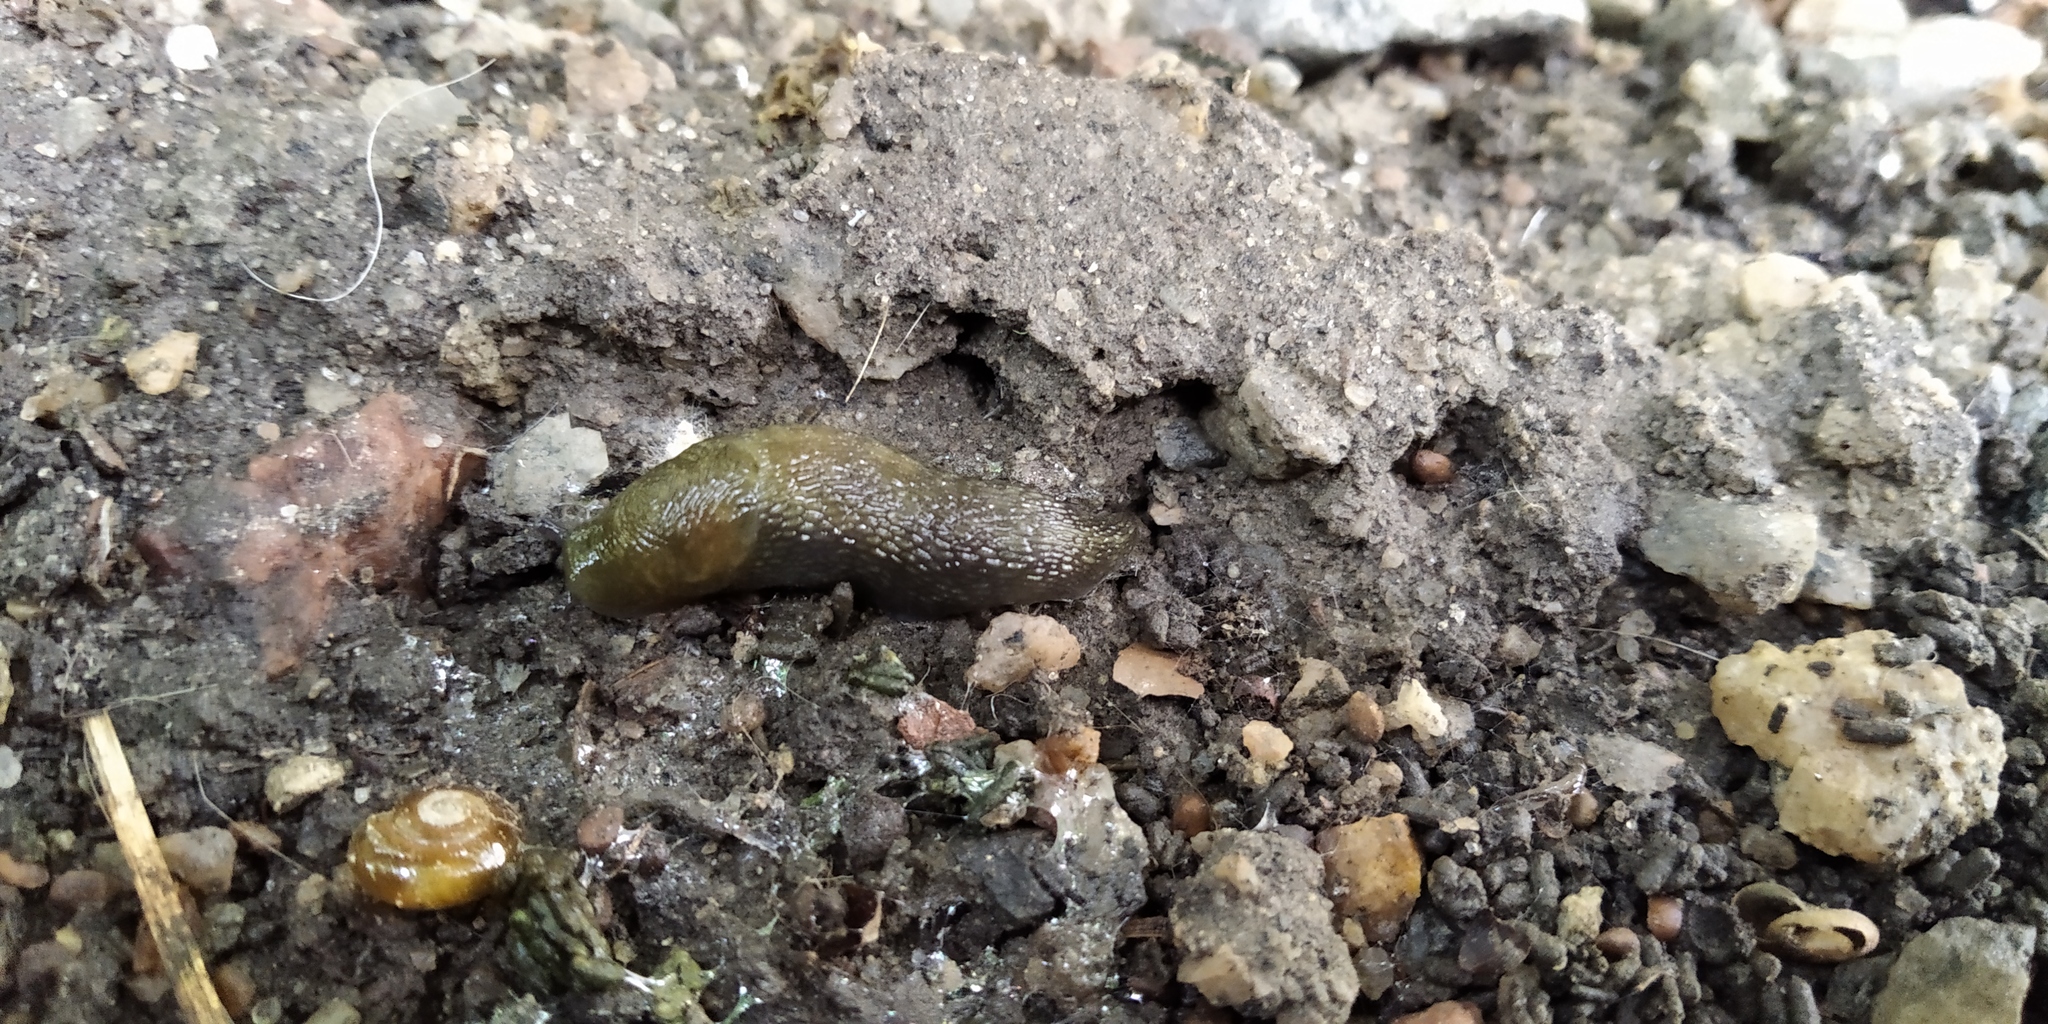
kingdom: Animalia
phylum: Mollusca
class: Gastropoda
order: Stylommatophora
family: Limacidae
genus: Limacus
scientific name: Limacus
